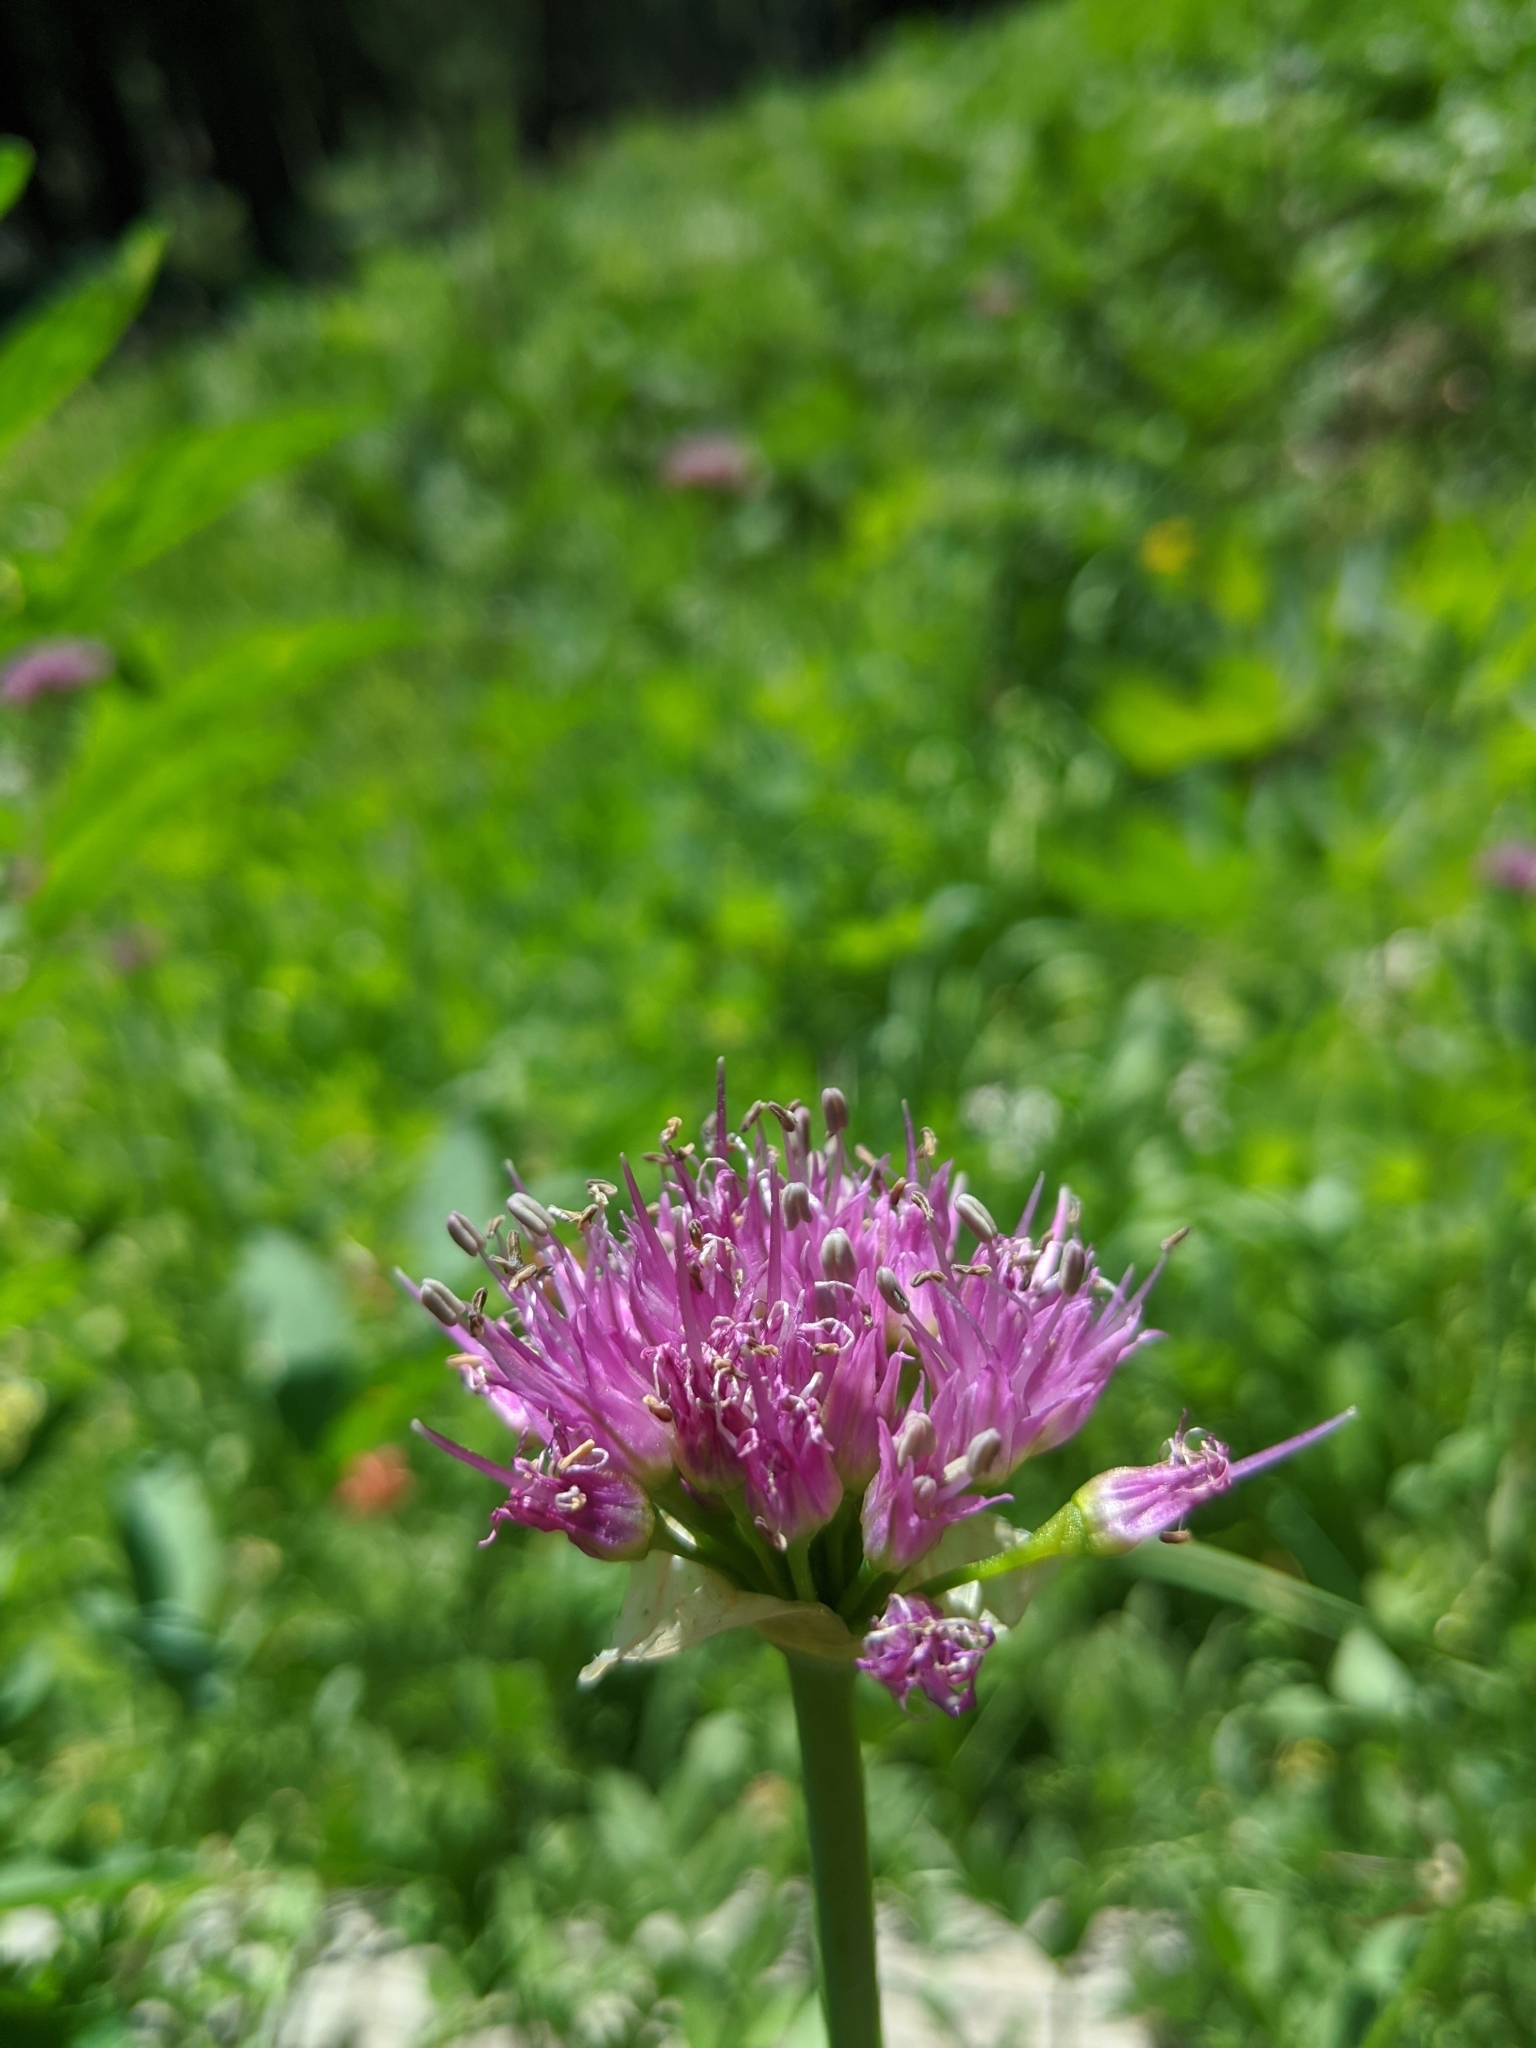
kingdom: Plantae
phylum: Tracheophyta
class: Liliopsida
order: Asparagales
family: Amaryllidaceae
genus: Allium
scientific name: Allium validum
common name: Pacific mountain onion
